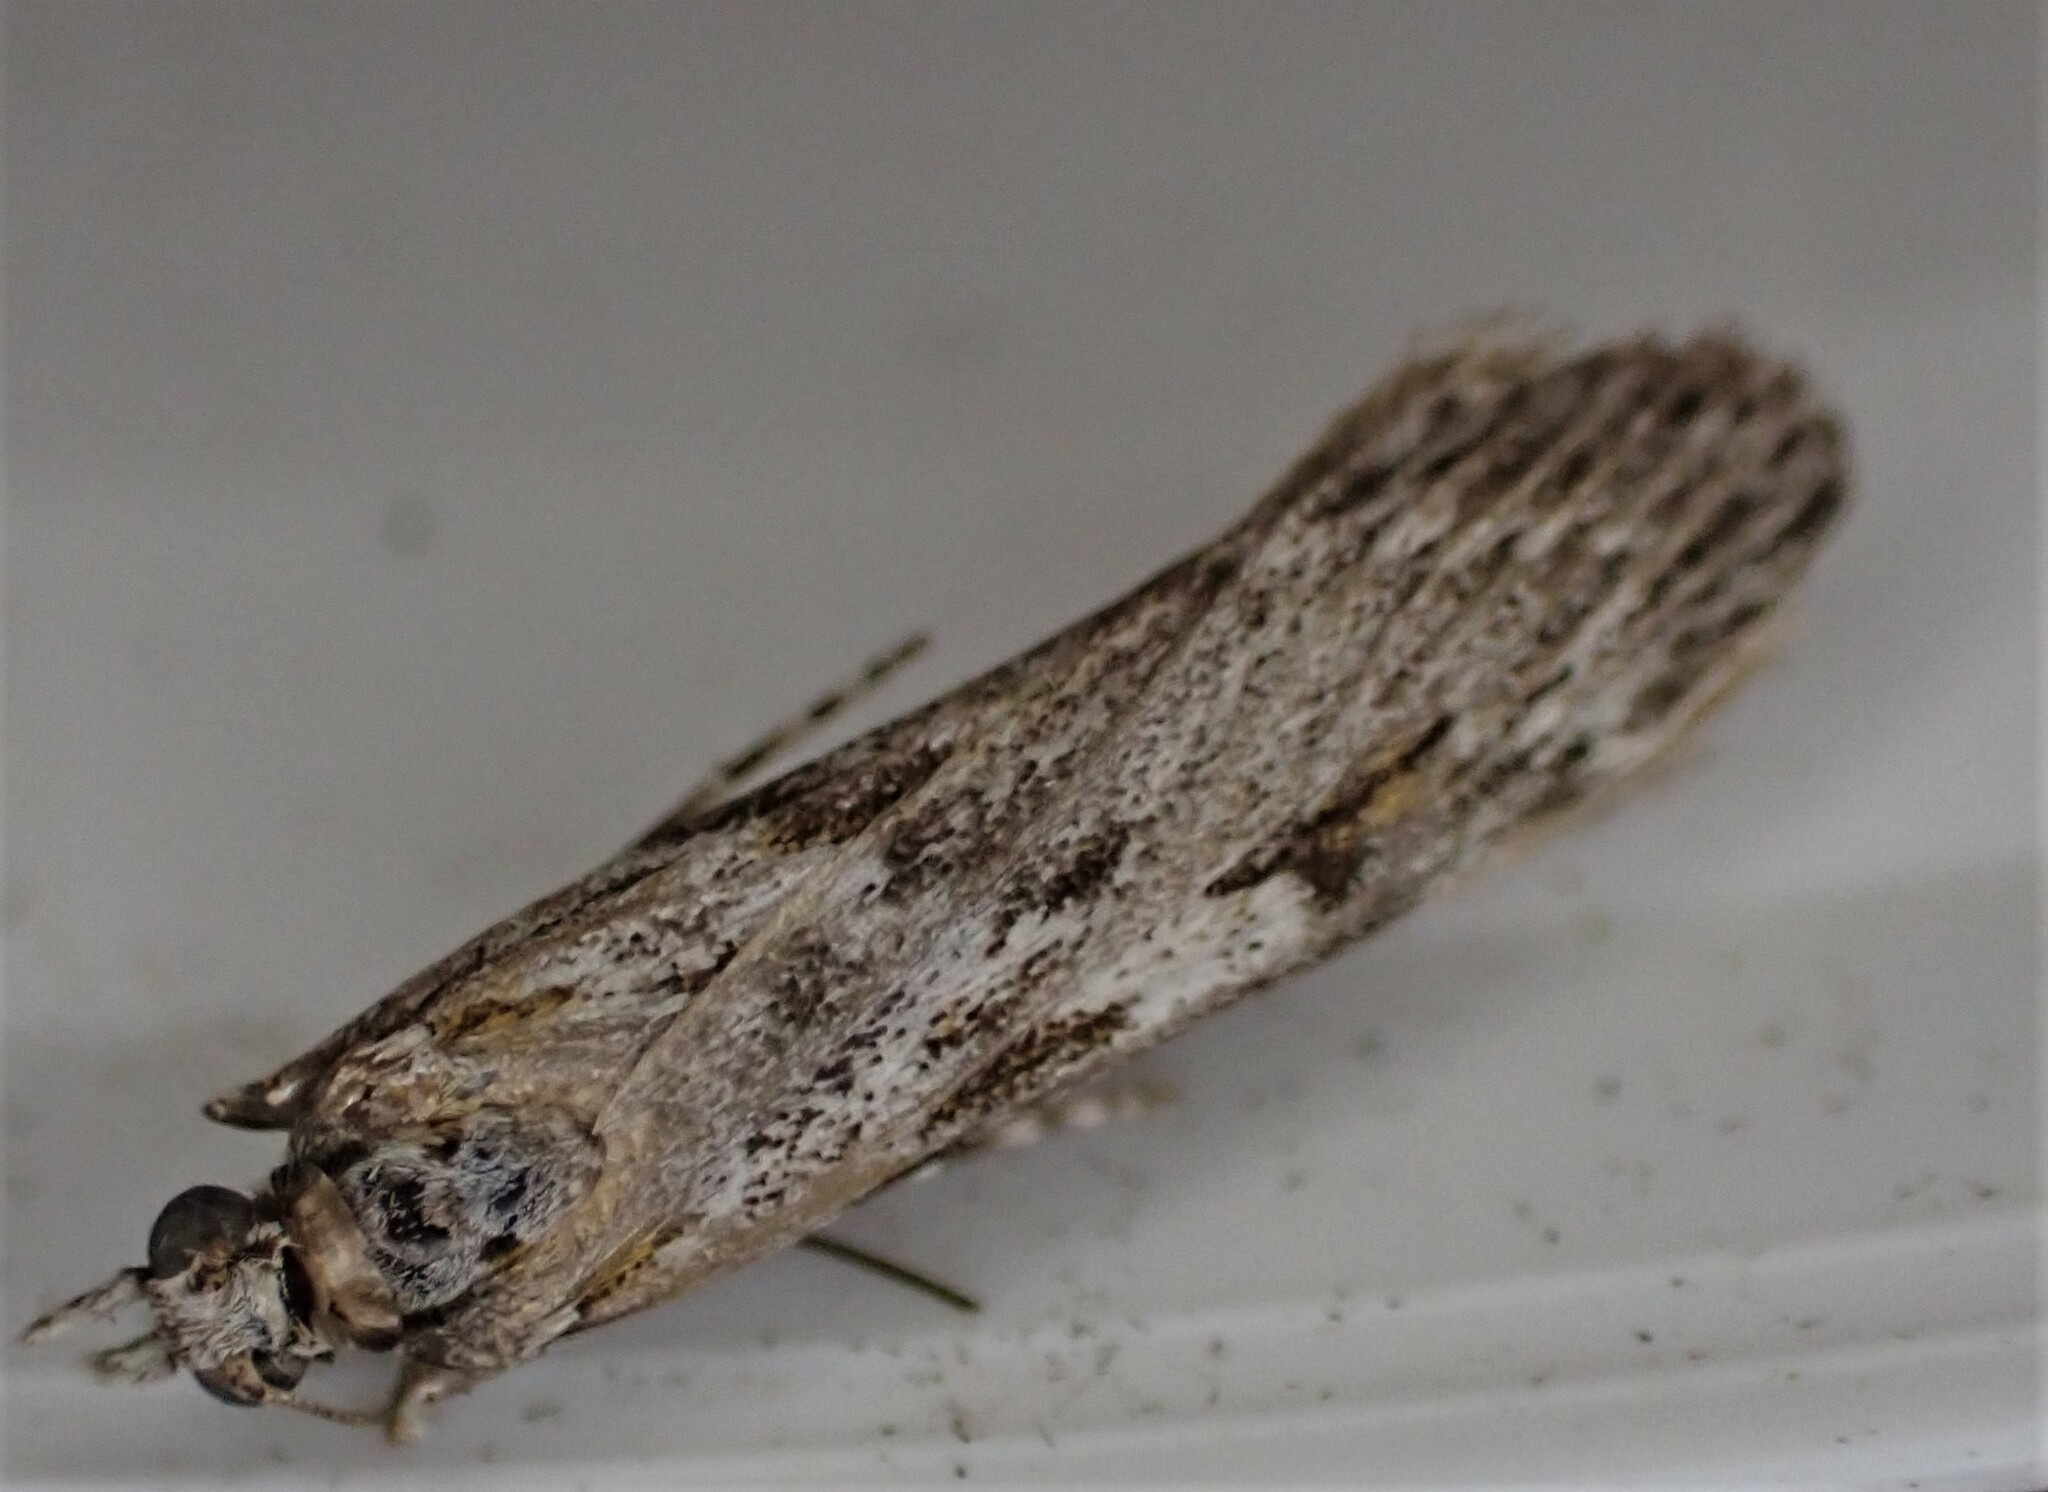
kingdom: Animalia
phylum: Arthropoda
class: Insecta
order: Lepidoptera
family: Crambidae
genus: Scoparia
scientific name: Scoparia halopis
